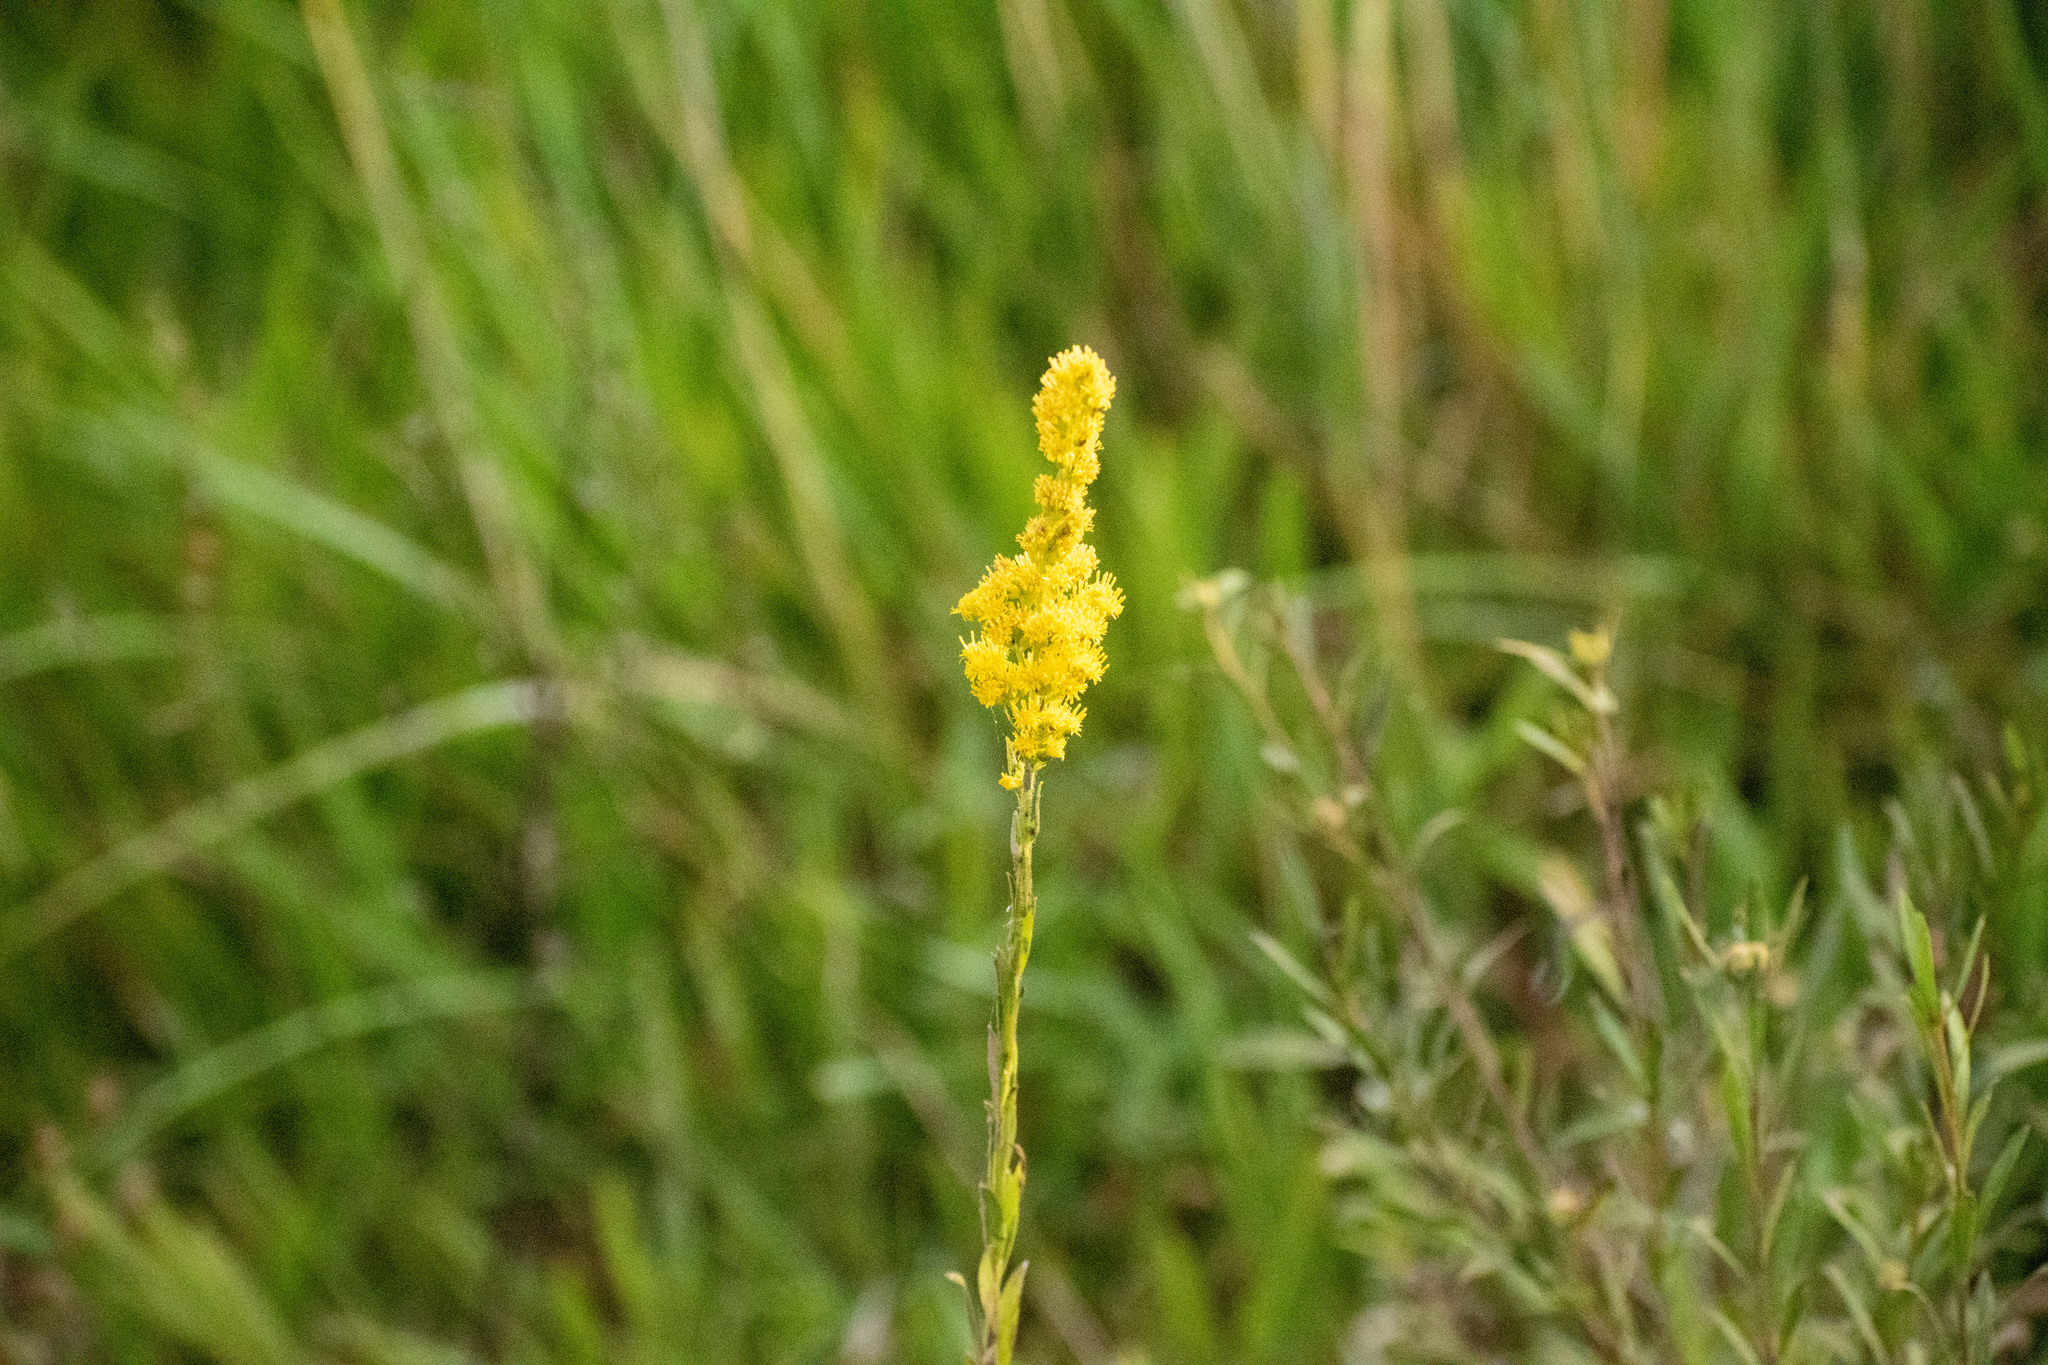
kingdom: Plantae
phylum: Tracheophyta
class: Magnoliopsida
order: Asterales
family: Asteraceae
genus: Solidago
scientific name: Solidago chilensis
